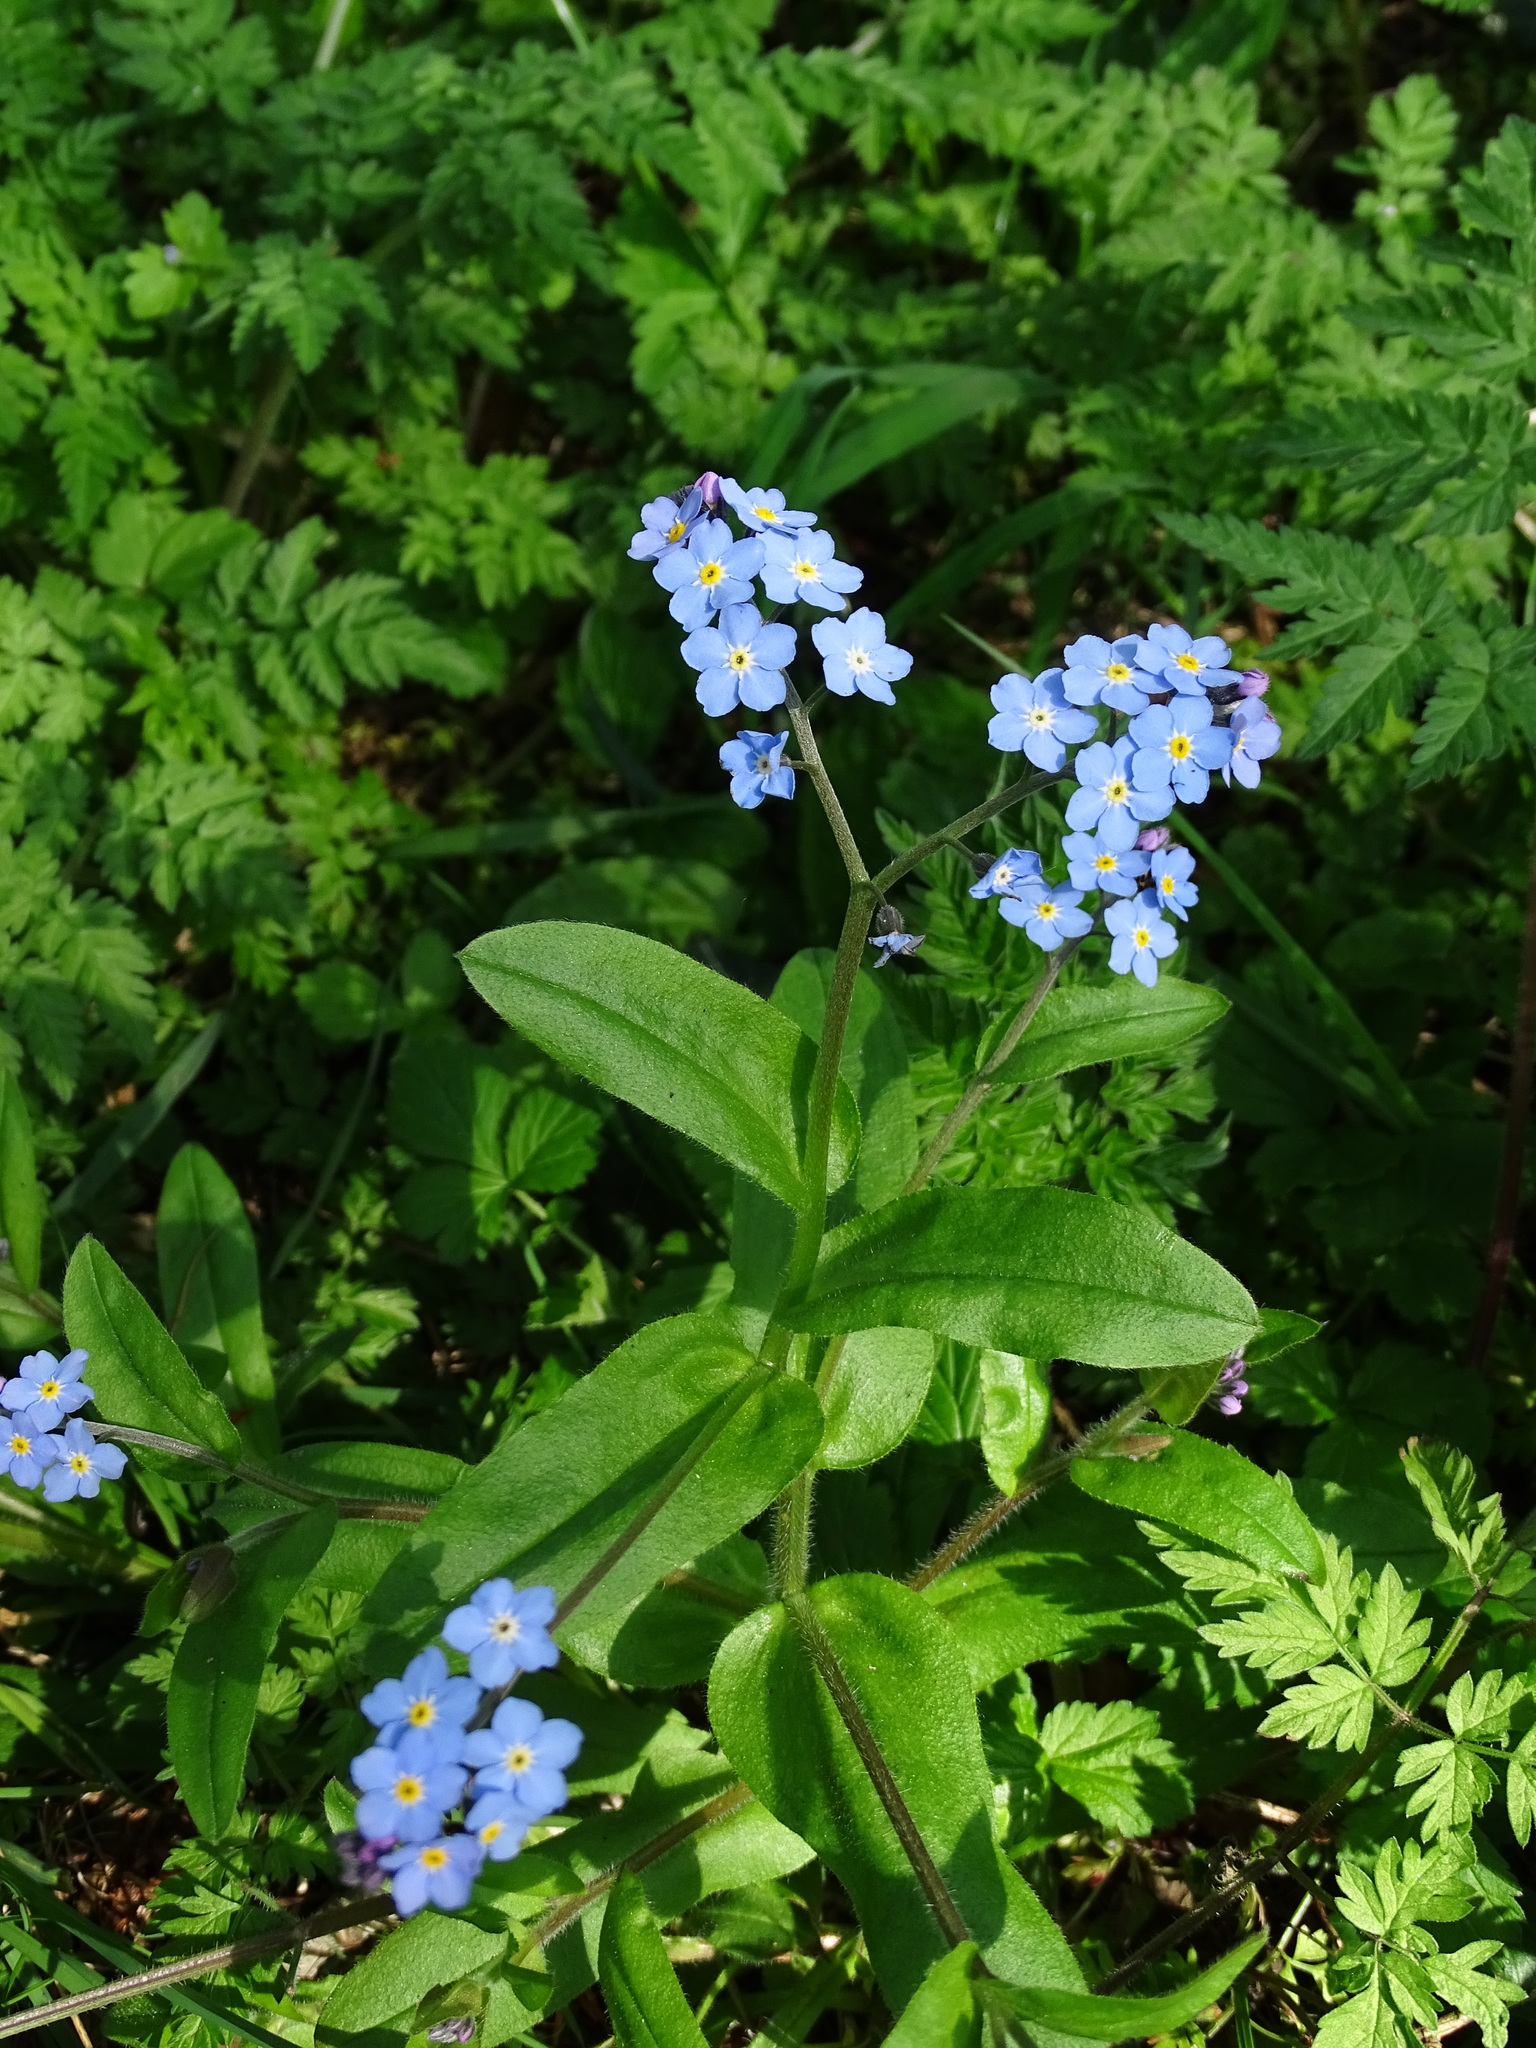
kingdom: Plantae
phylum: Tracheophyta
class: Magnoliopsida
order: Boraginales
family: Boraginaceae
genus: Myosotis
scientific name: Myosotis sylvatica
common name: Wood forget-me-not
